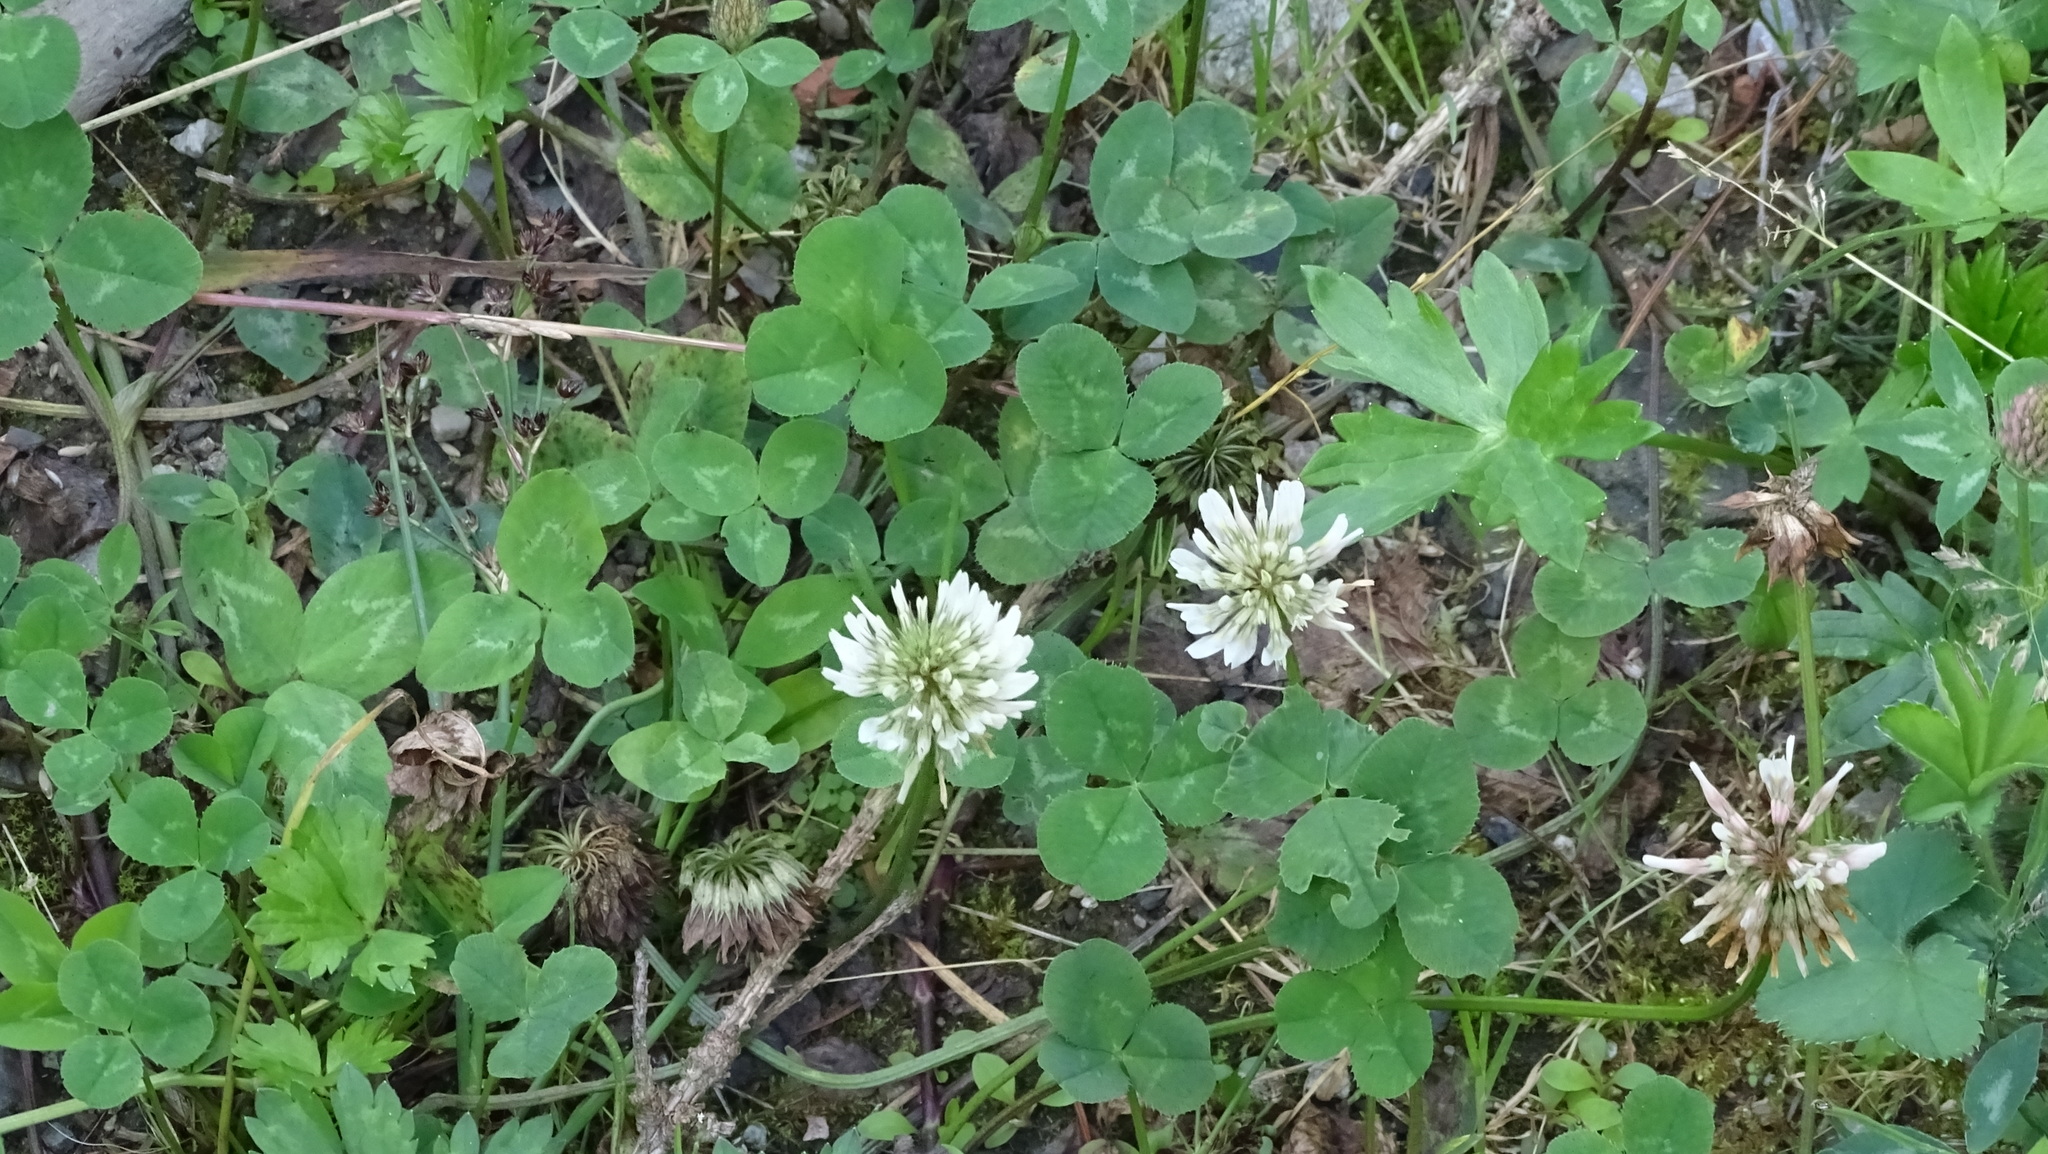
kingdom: Plantae
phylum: Tracheophyta
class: Magnoliopsida
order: Fabales
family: Fabaceae
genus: Trifolium
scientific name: Trifolium repens
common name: White clover
